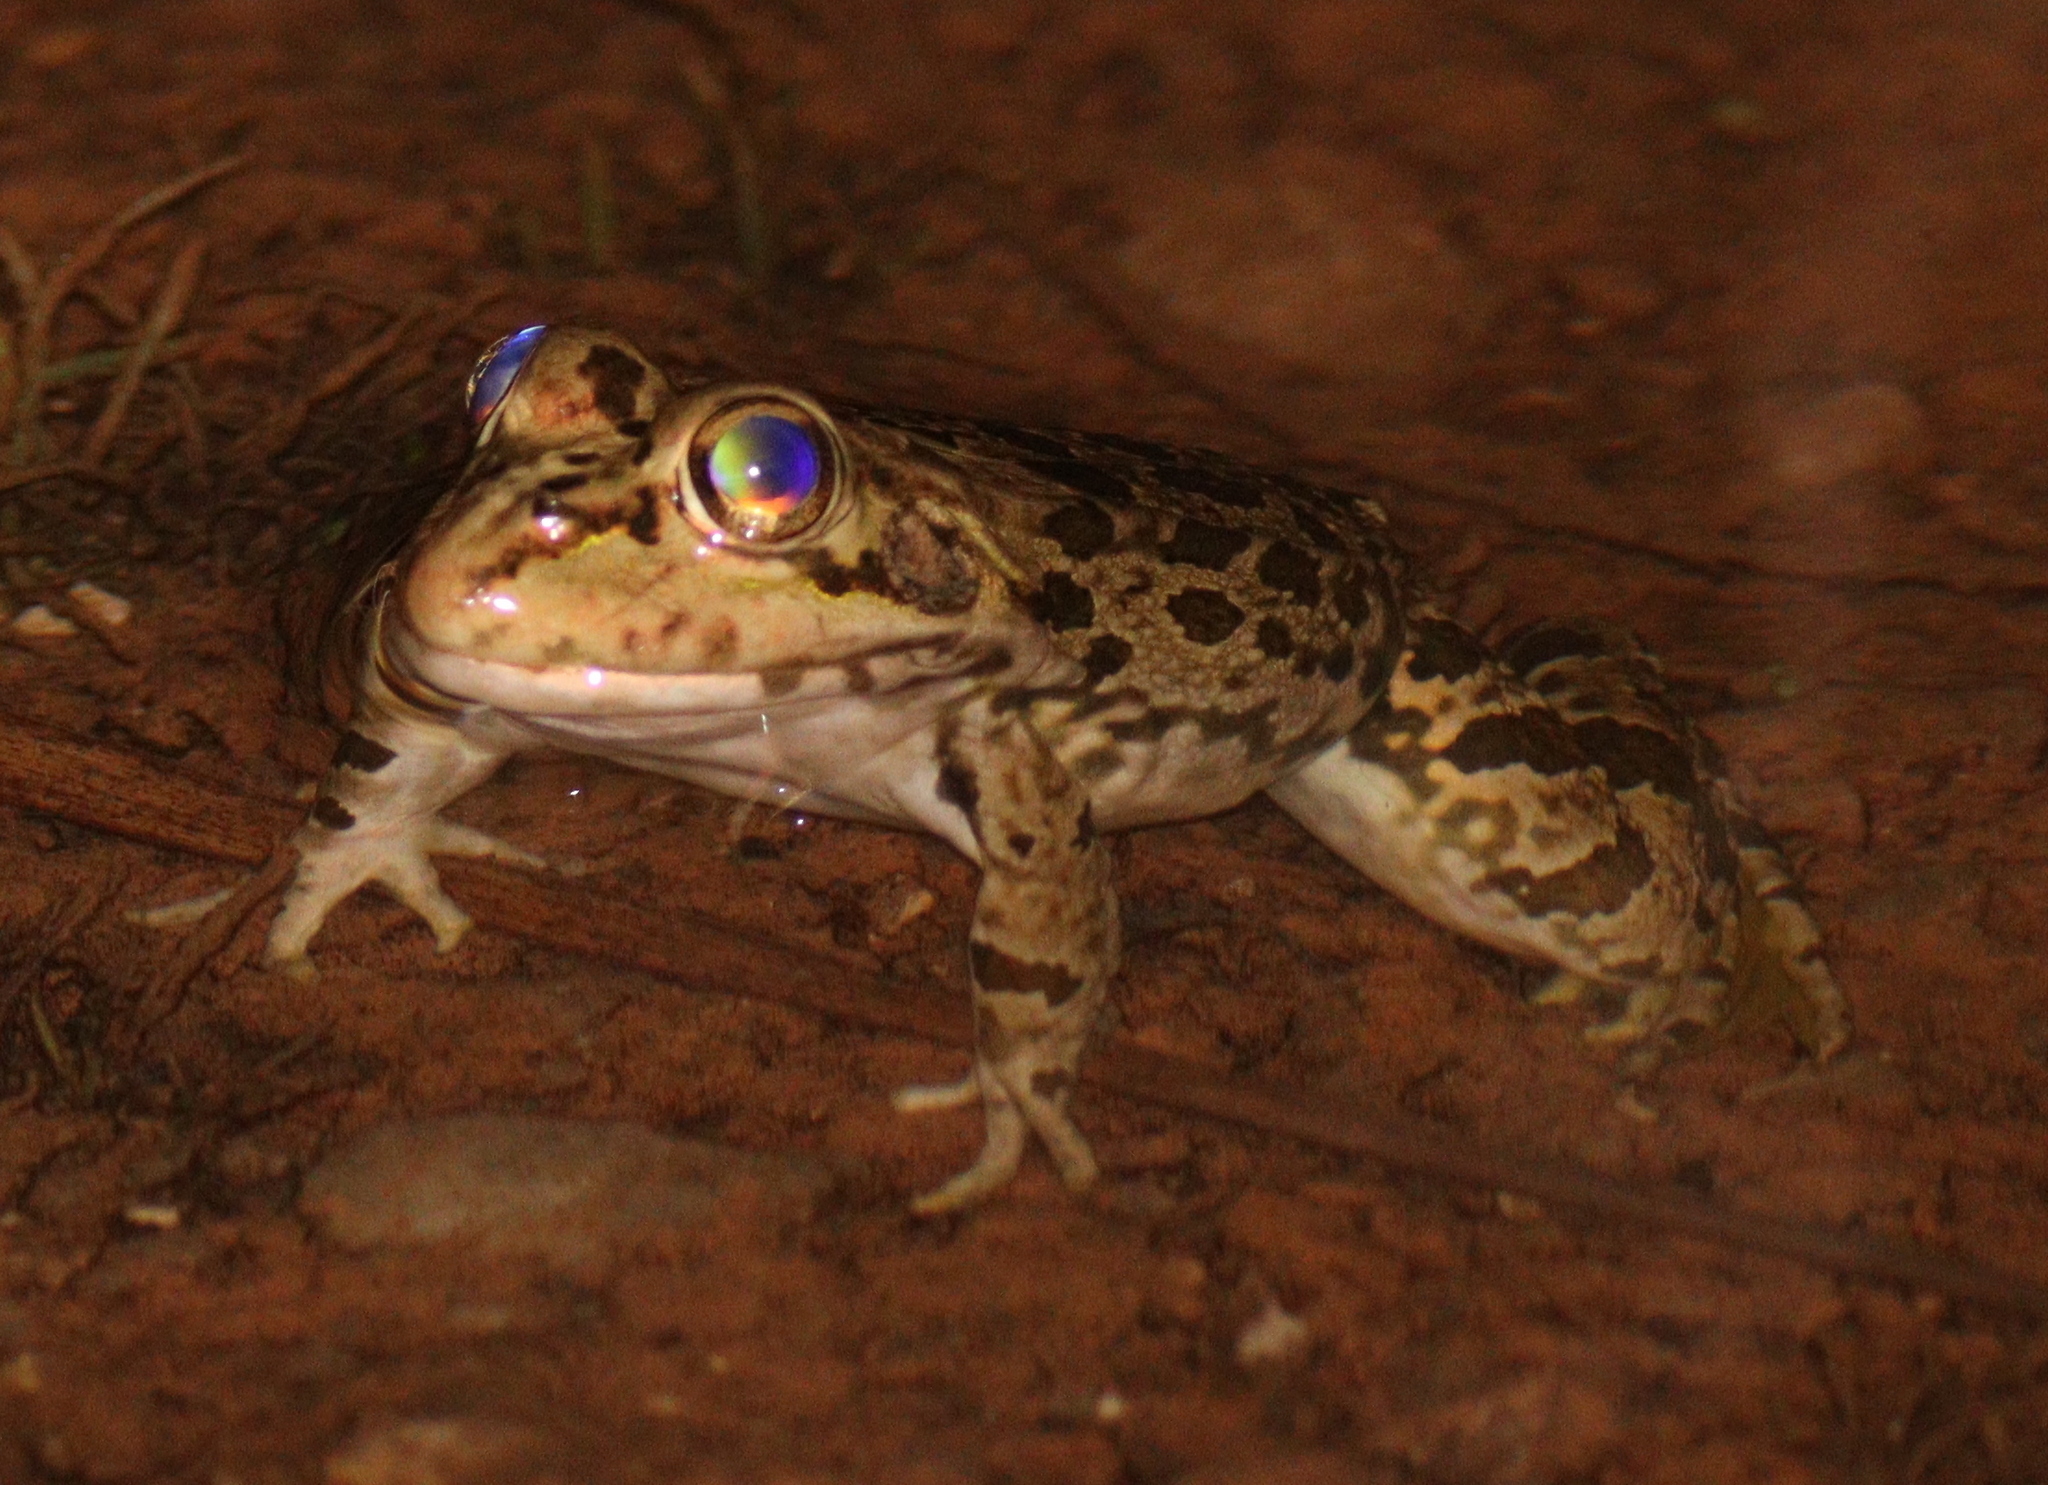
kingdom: Animalia
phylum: Chordata
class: Amphibia
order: Anura
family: Ranidae
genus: Pelophylax
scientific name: Pelophylax perezi
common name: Perez's frog
